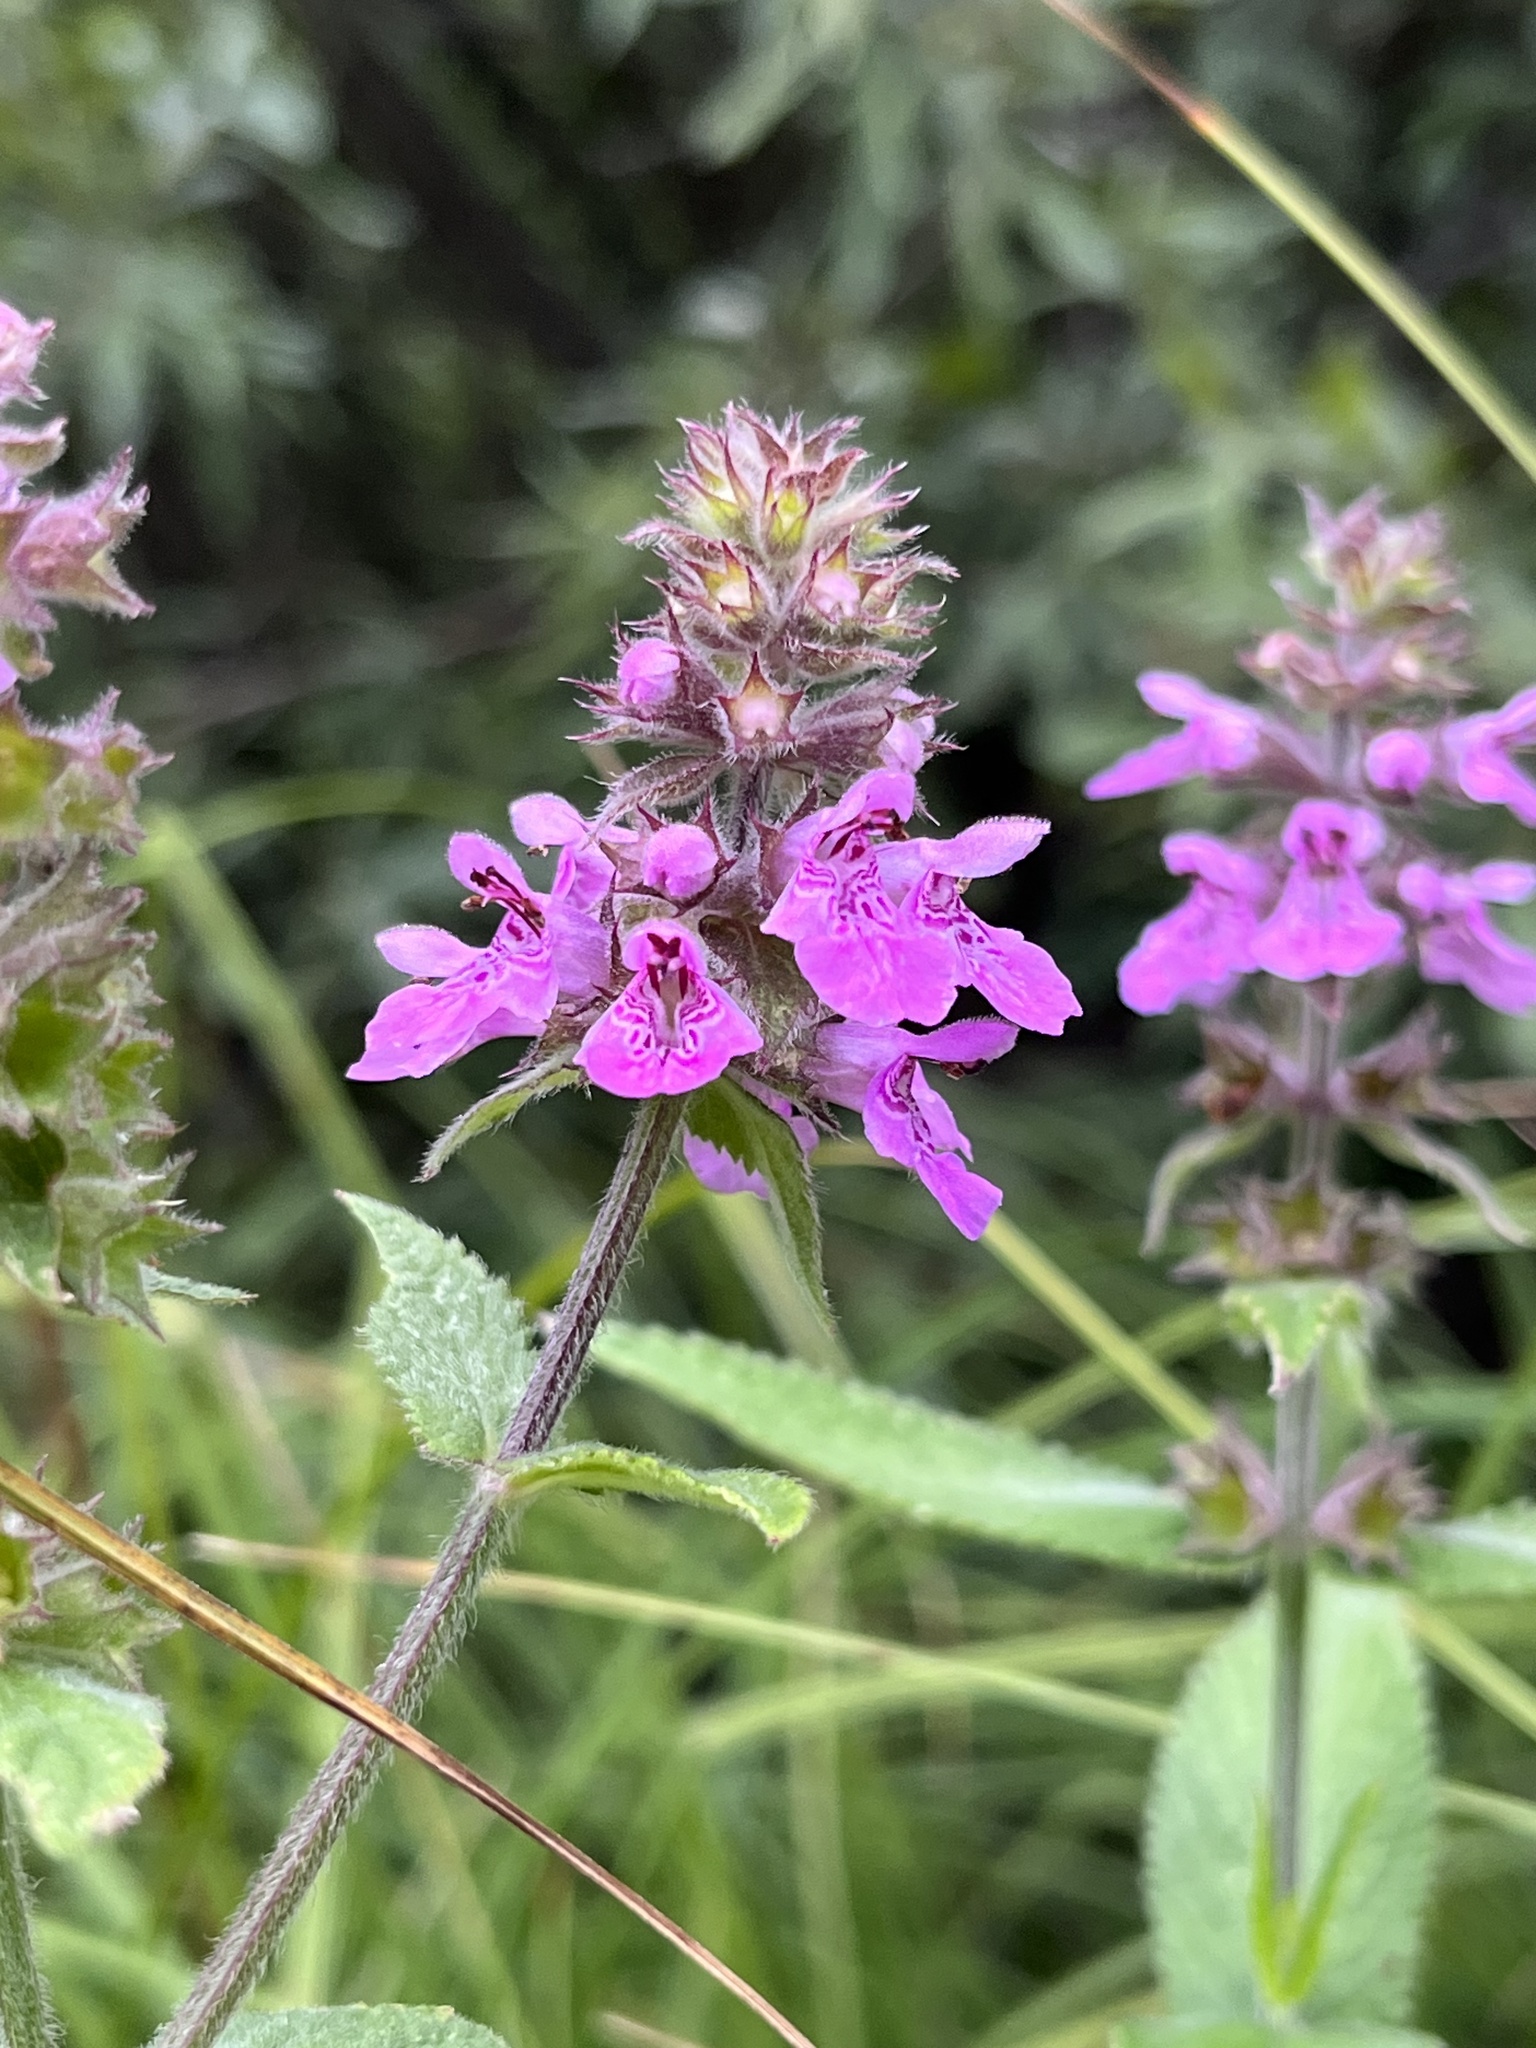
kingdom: Plantae
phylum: Tracheophyta
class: Magnoliopsida
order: Lamiales
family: Lamiaceae
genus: Stachys
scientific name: Stachys palustris
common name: Marsh woundwort
